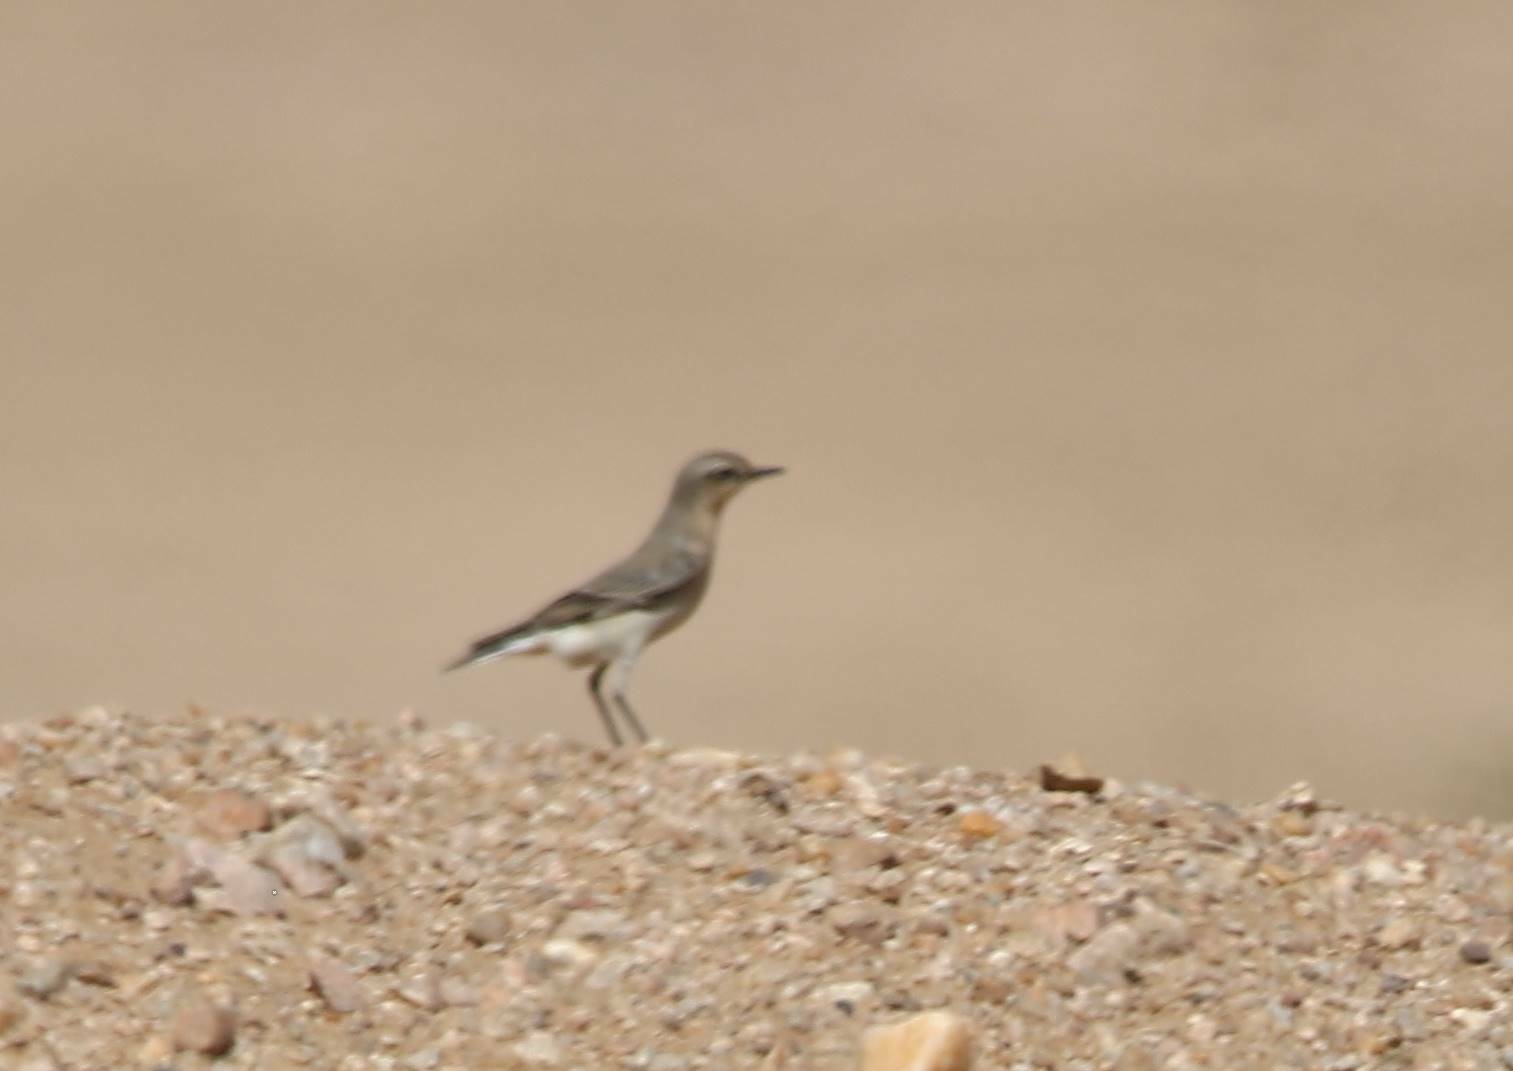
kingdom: Animalia
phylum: Chordata
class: Aves
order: Passeriformes
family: Muscicapidae
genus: Oenanthe
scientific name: Oenanthe isabellina
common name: Isabelline wheatear
